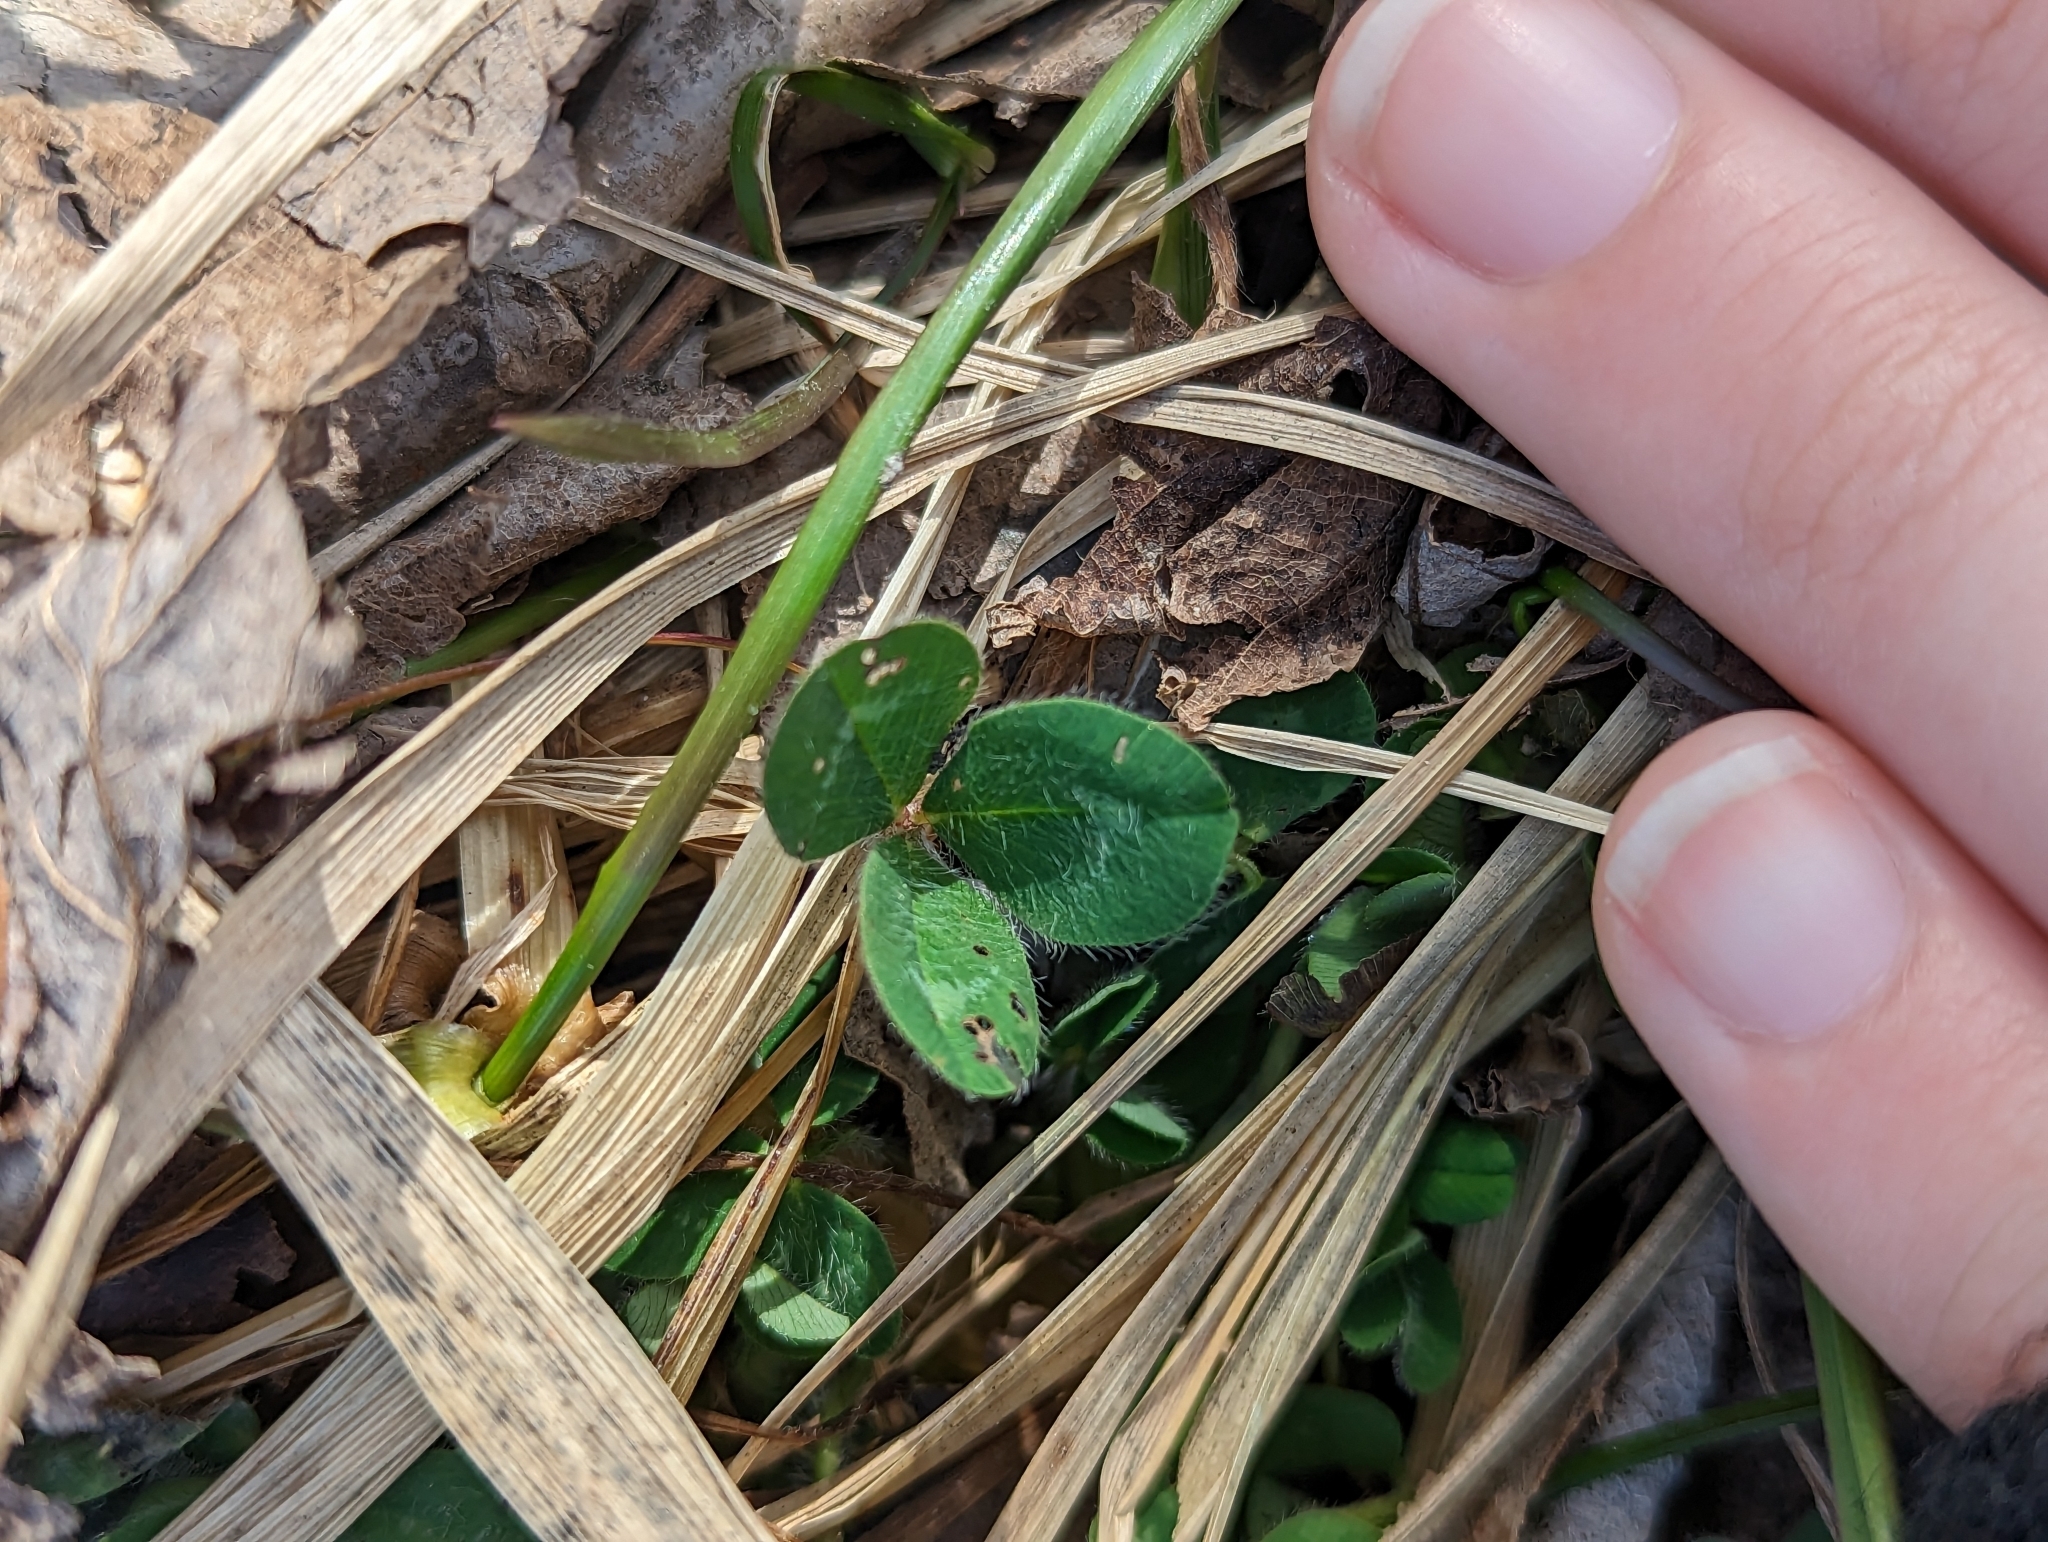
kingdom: Plantae
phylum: Tracheophyta
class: Magnoliopsida
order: Fabales
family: Fabaceae
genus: Trifolium
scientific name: Trifolium pratense
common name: Red clover
